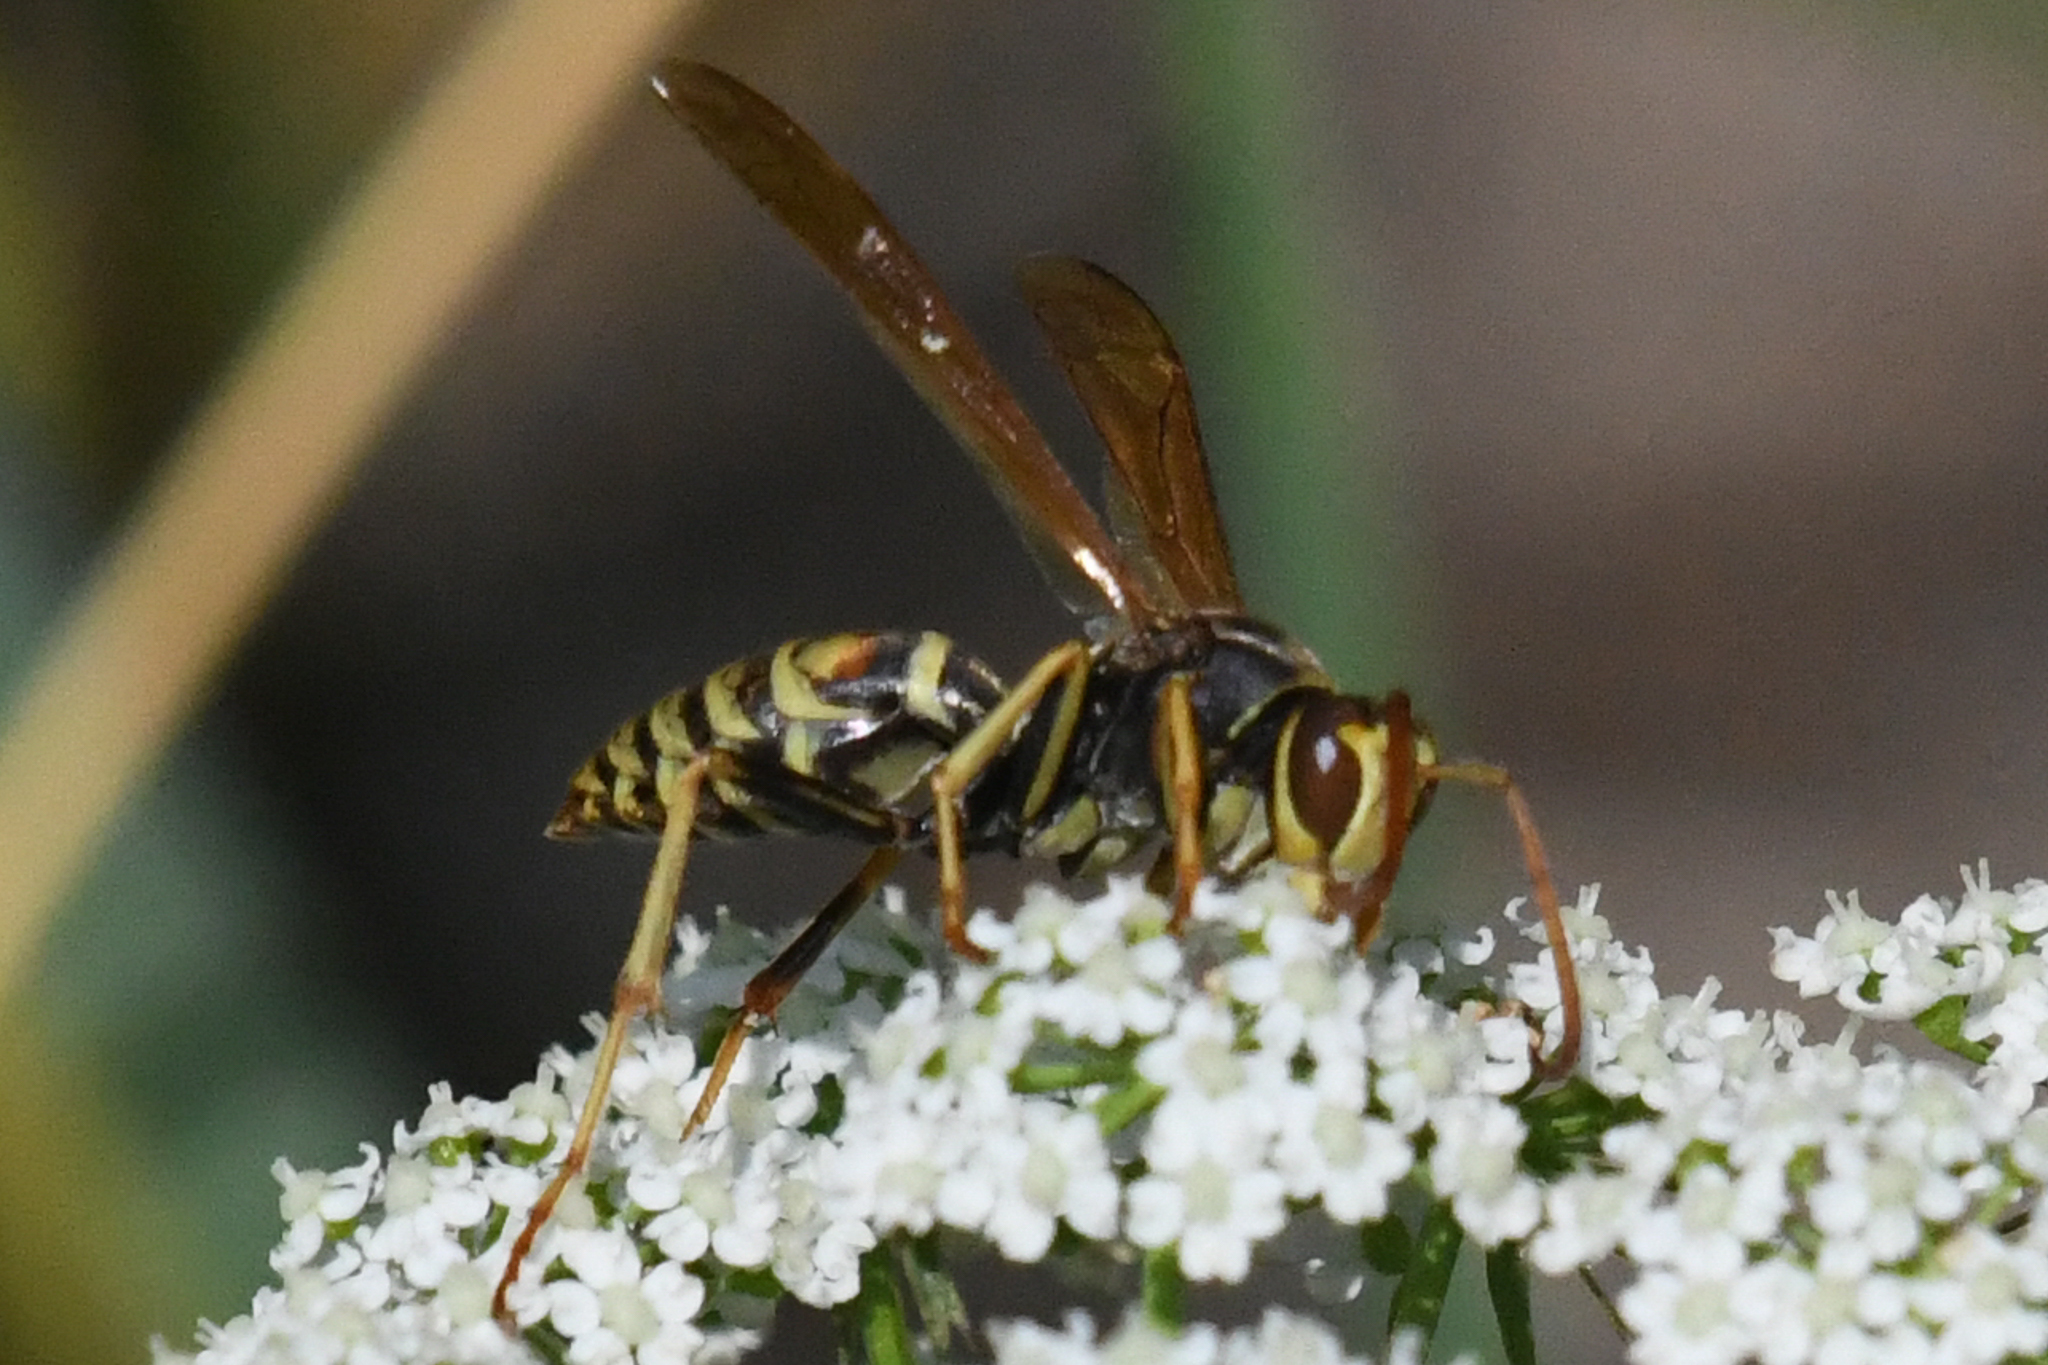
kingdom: Animalia
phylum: Arthropoda
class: Insecta
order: Hymenoptera
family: Eumenidae
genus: Polistes
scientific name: Polistes aurifer
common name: Paper wasp
